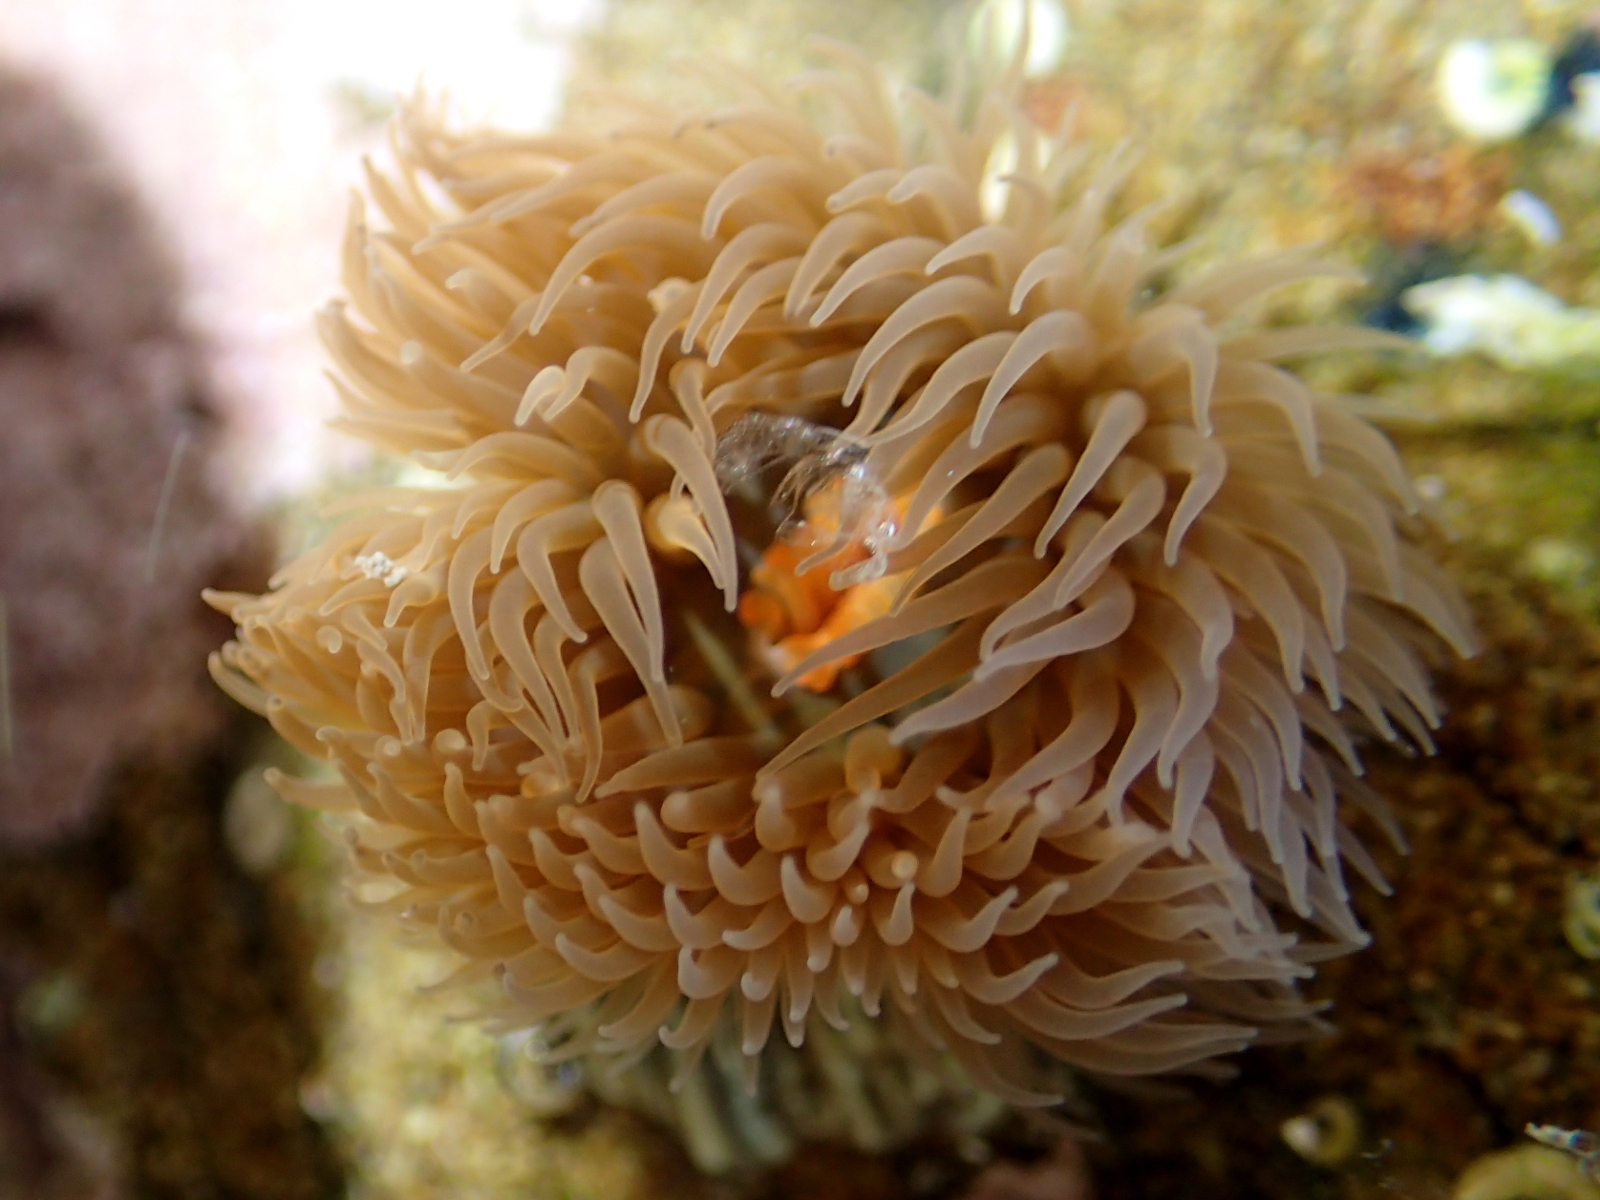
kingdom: Animalia
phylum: Cnidaria
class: Anthozoa
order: Actiniaria
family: Diadumenidae
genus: Diadumene
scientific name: Diadumene neozelanica
